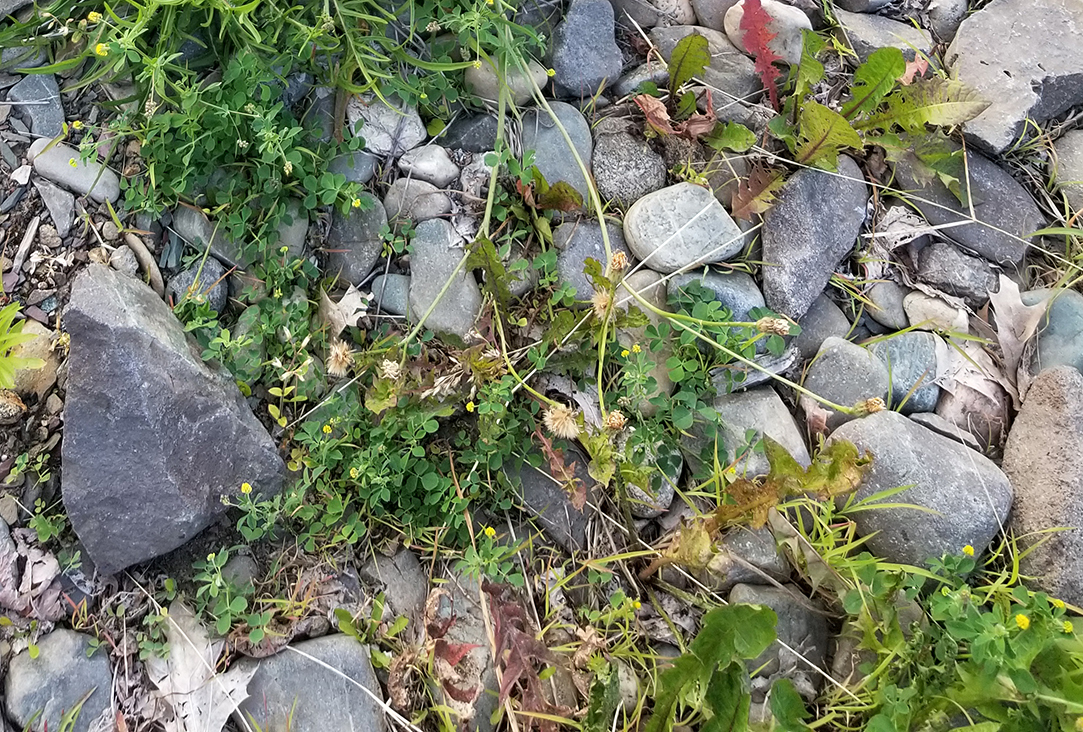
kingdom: Plantae
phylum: Tracheophyta
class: Magnoliopsida
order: Fabales
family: Fabaceae
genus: Medicago
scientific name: Medicago lupulina
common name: Black medick
